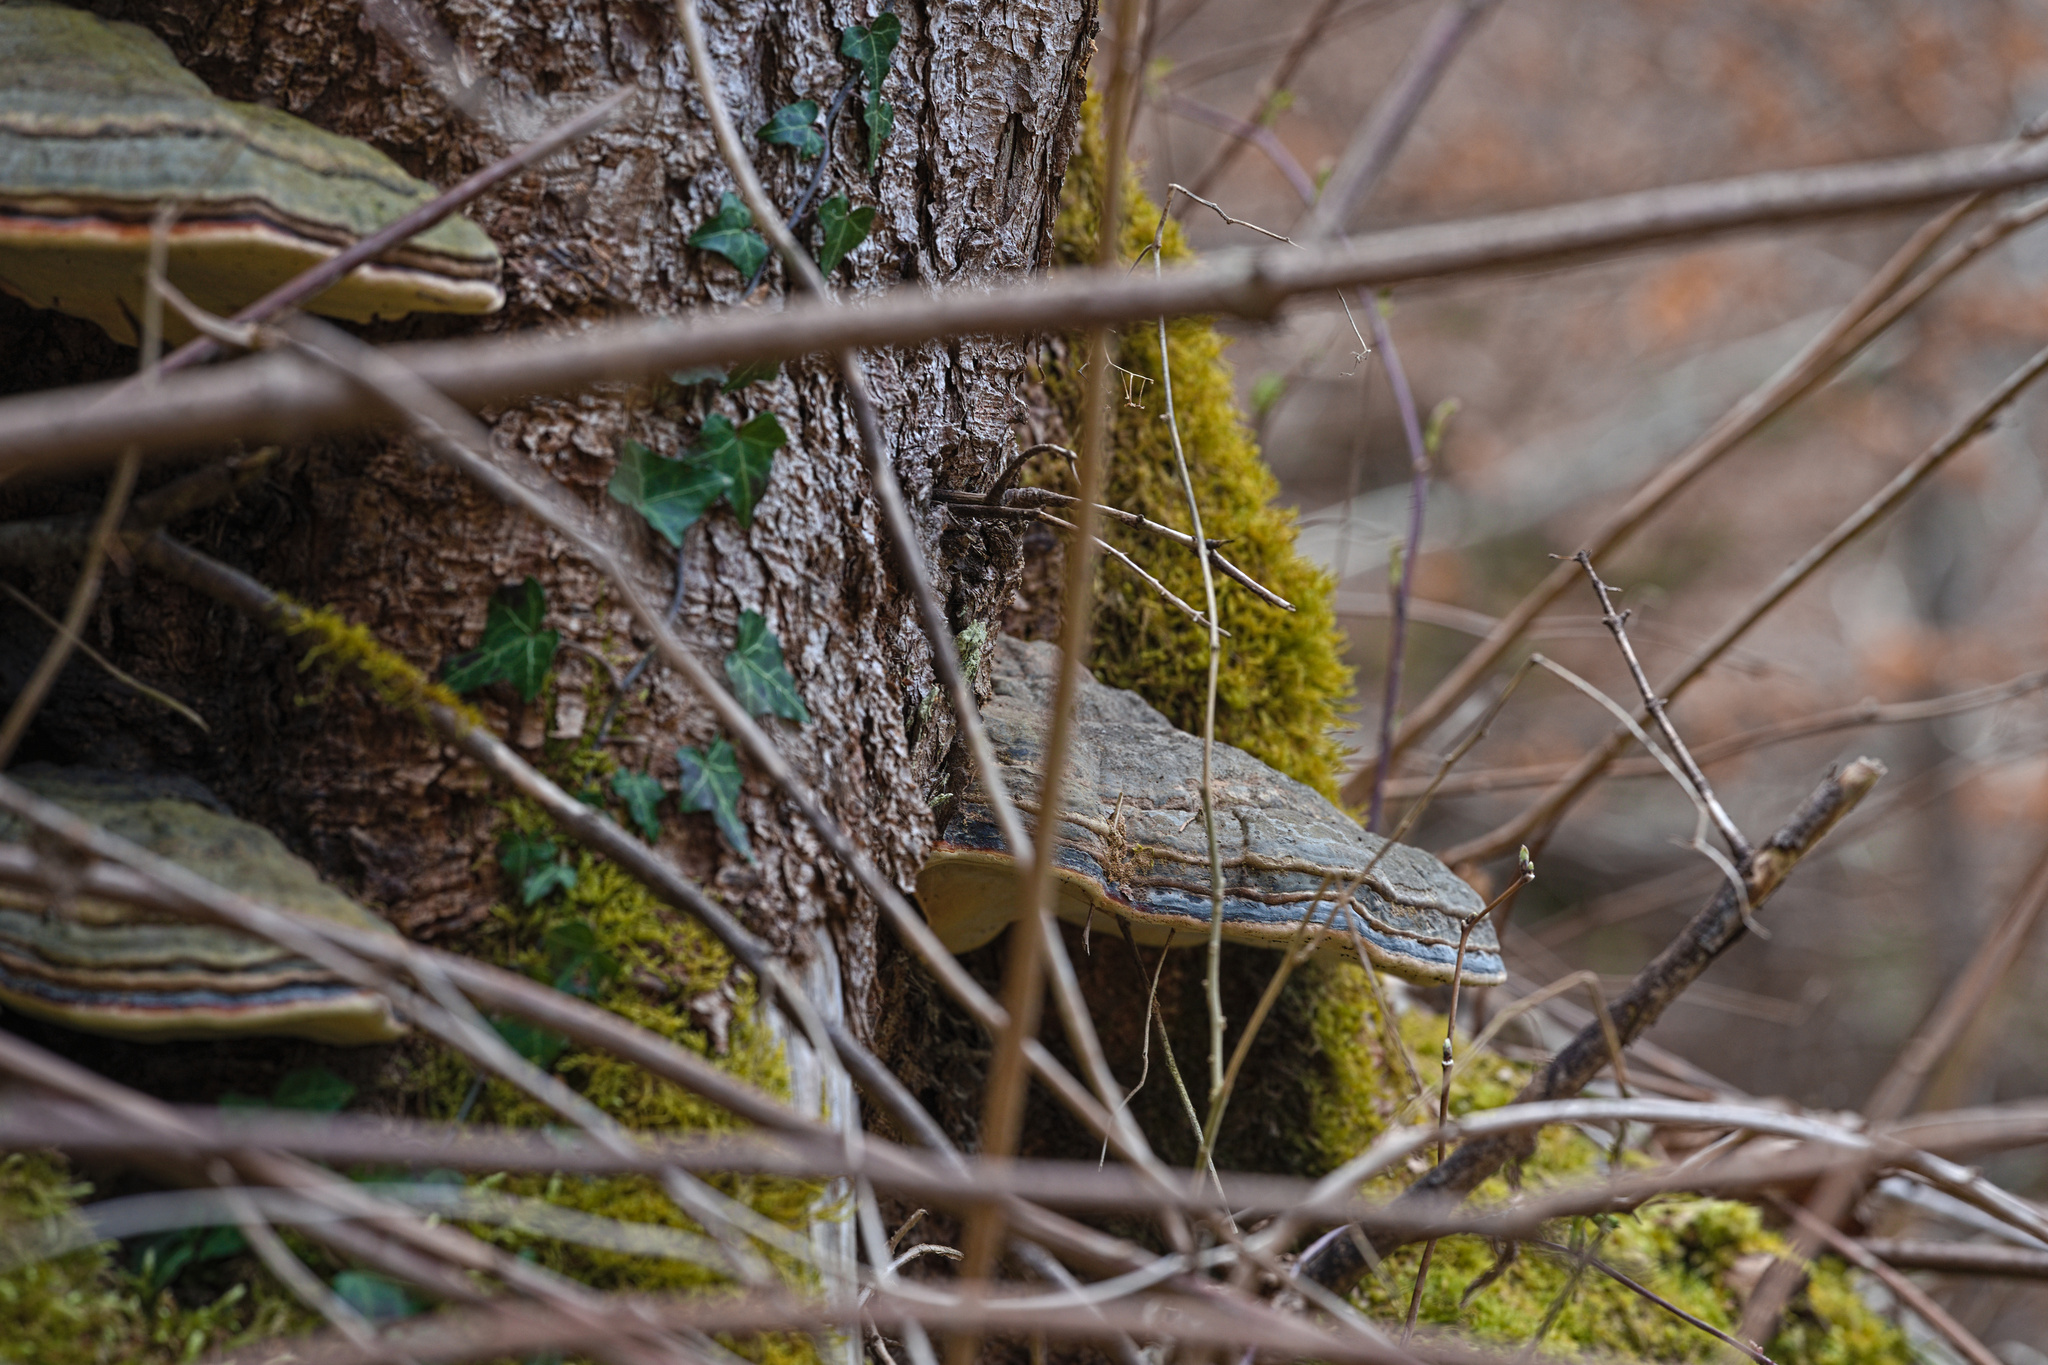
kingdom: Fungi
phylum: Basidiomycota
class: Agaricomycetes
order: Polyporales
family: Fomitopsidaceae
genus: Fomitopsis
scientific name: Fomitopsis pinicola
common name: Red-belted bracket
